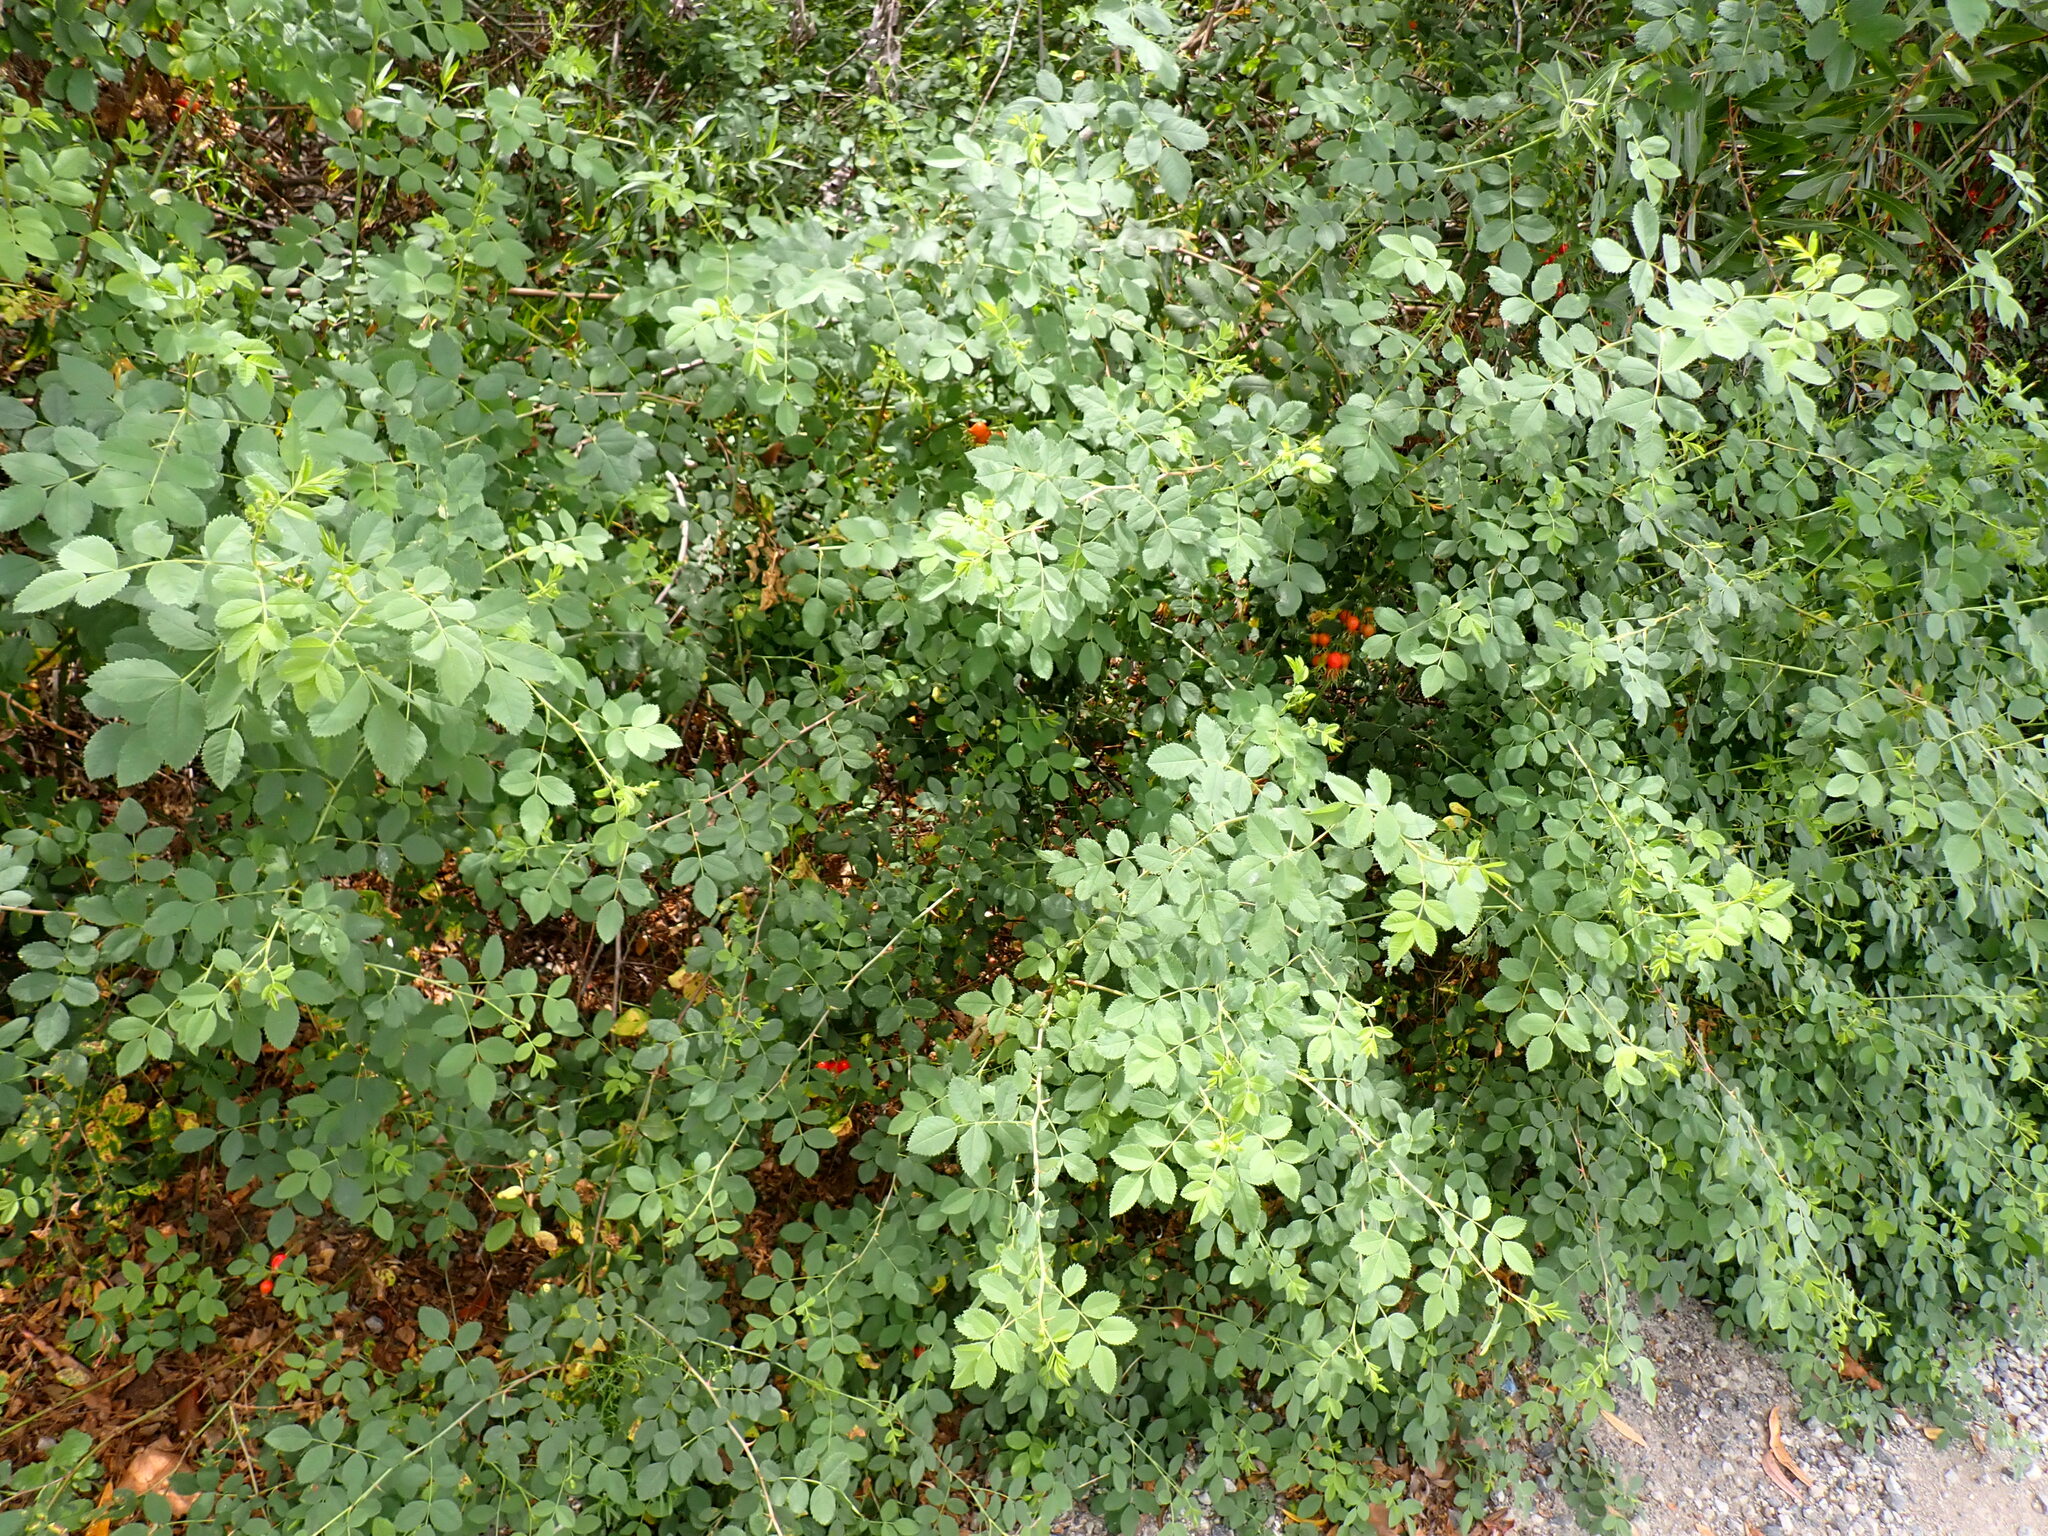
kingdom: Plantae
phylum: Tracheophyta
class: Magnoliopsida
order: Rosales
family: Rosaceae
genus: Rosa
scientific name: Rosa californica
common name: California rose
